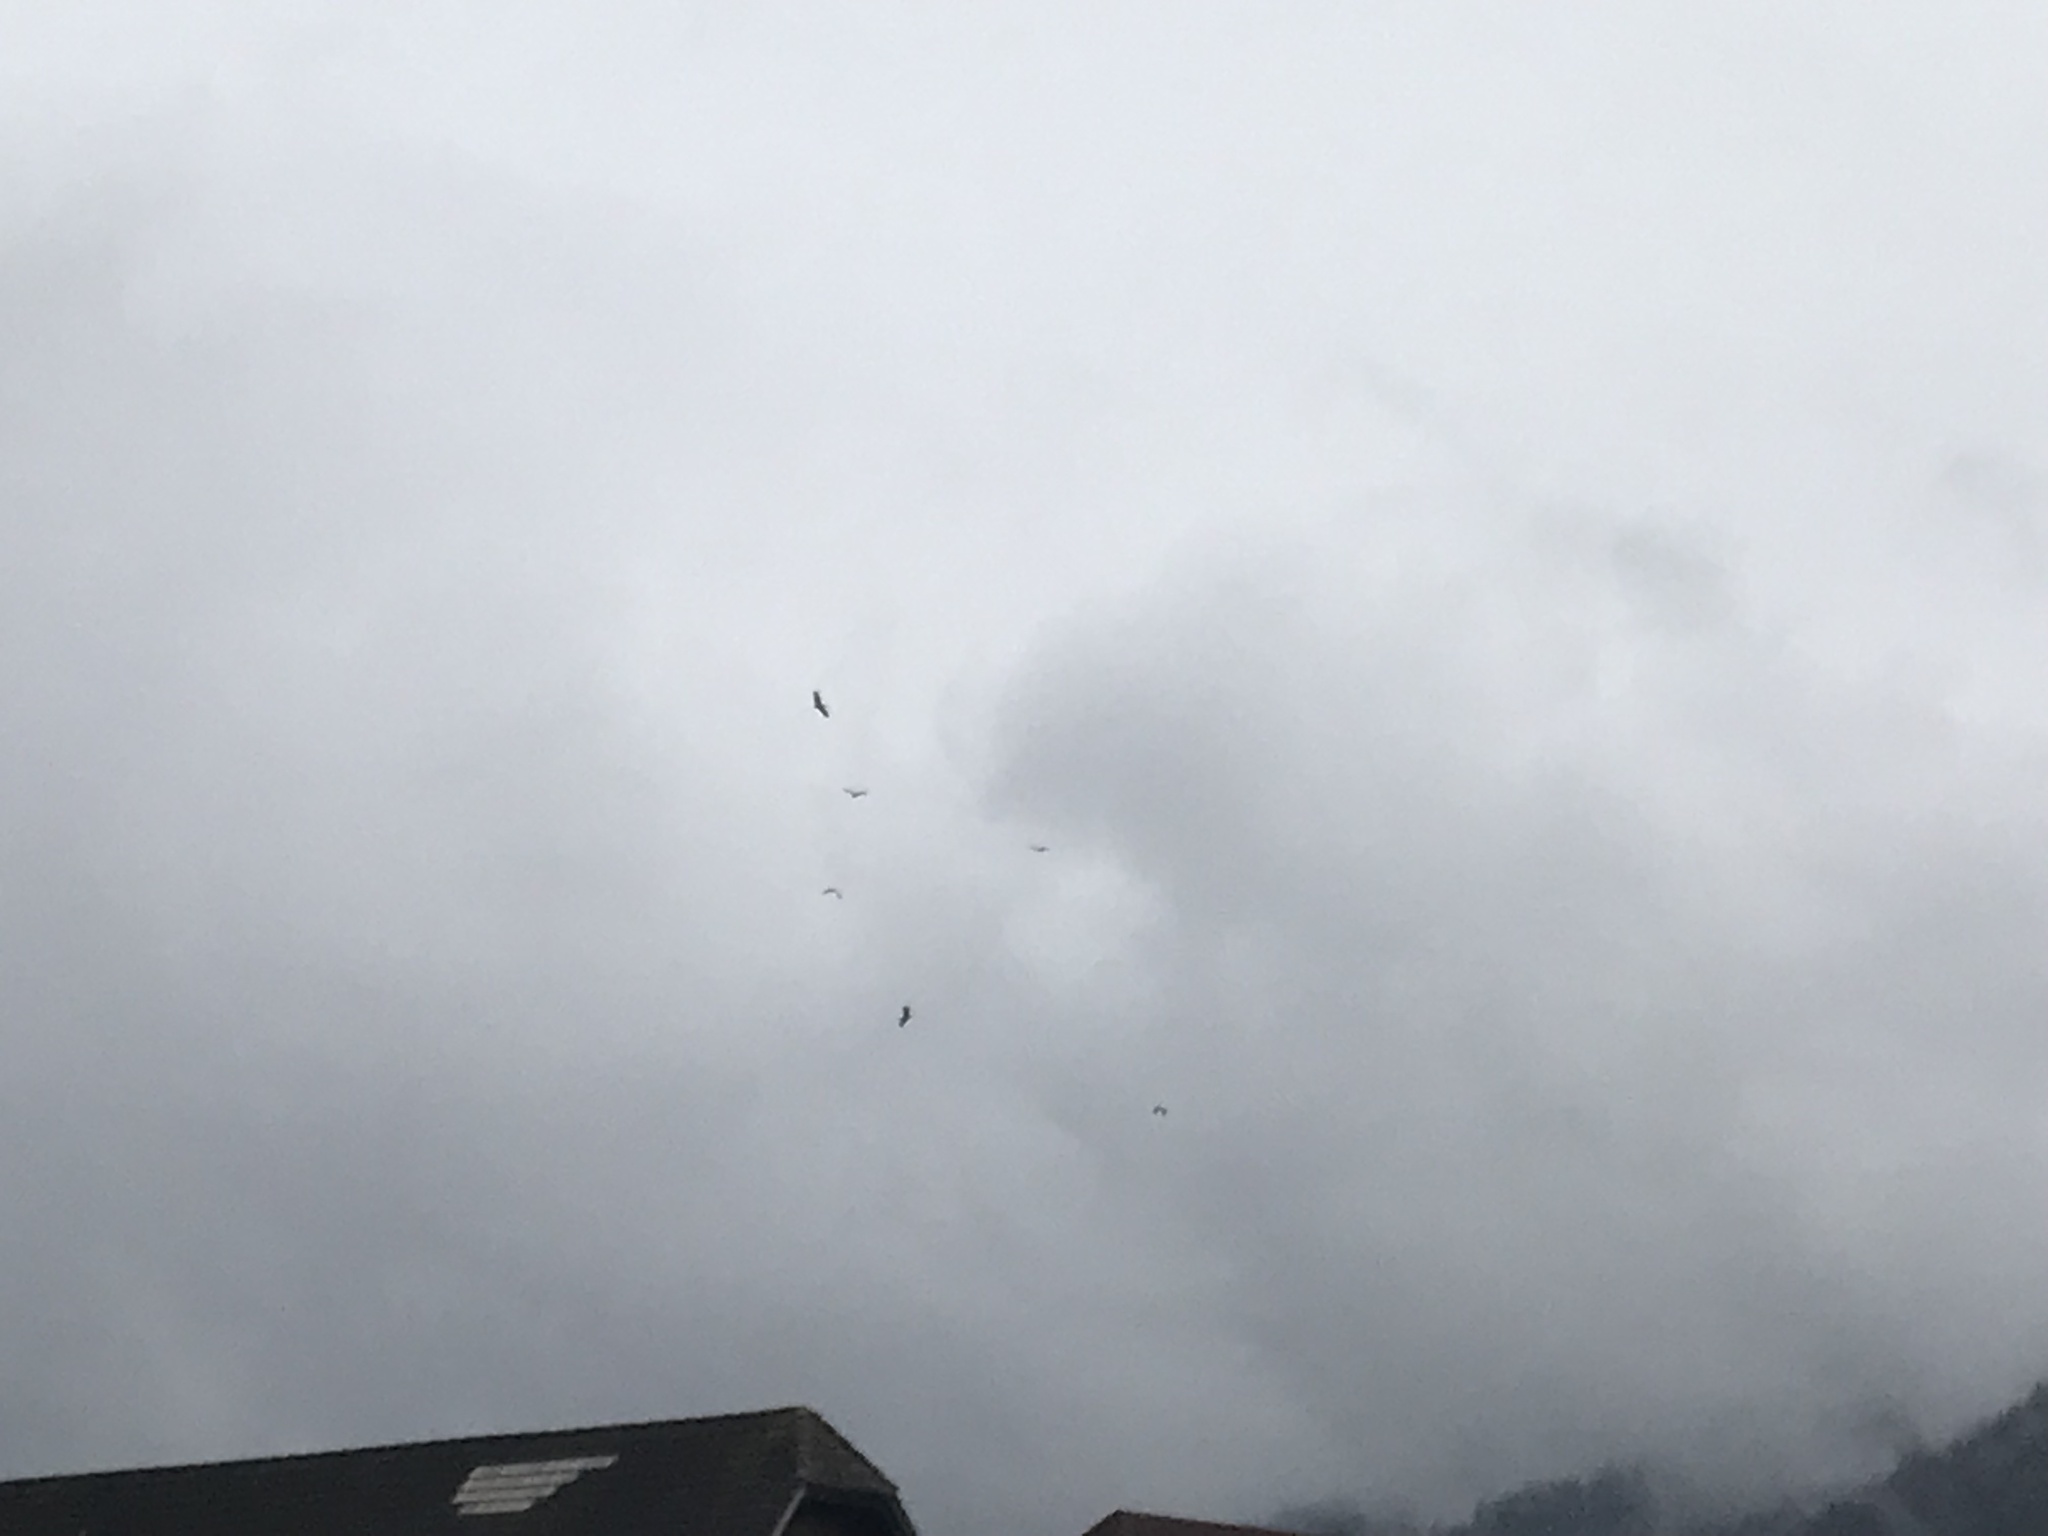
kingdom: Animalia
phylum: Chordata
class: Aves
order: Ciconiiformes
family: Ciconiidae
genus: Ciconia
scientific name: Ciconia ciconia
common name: White stork
